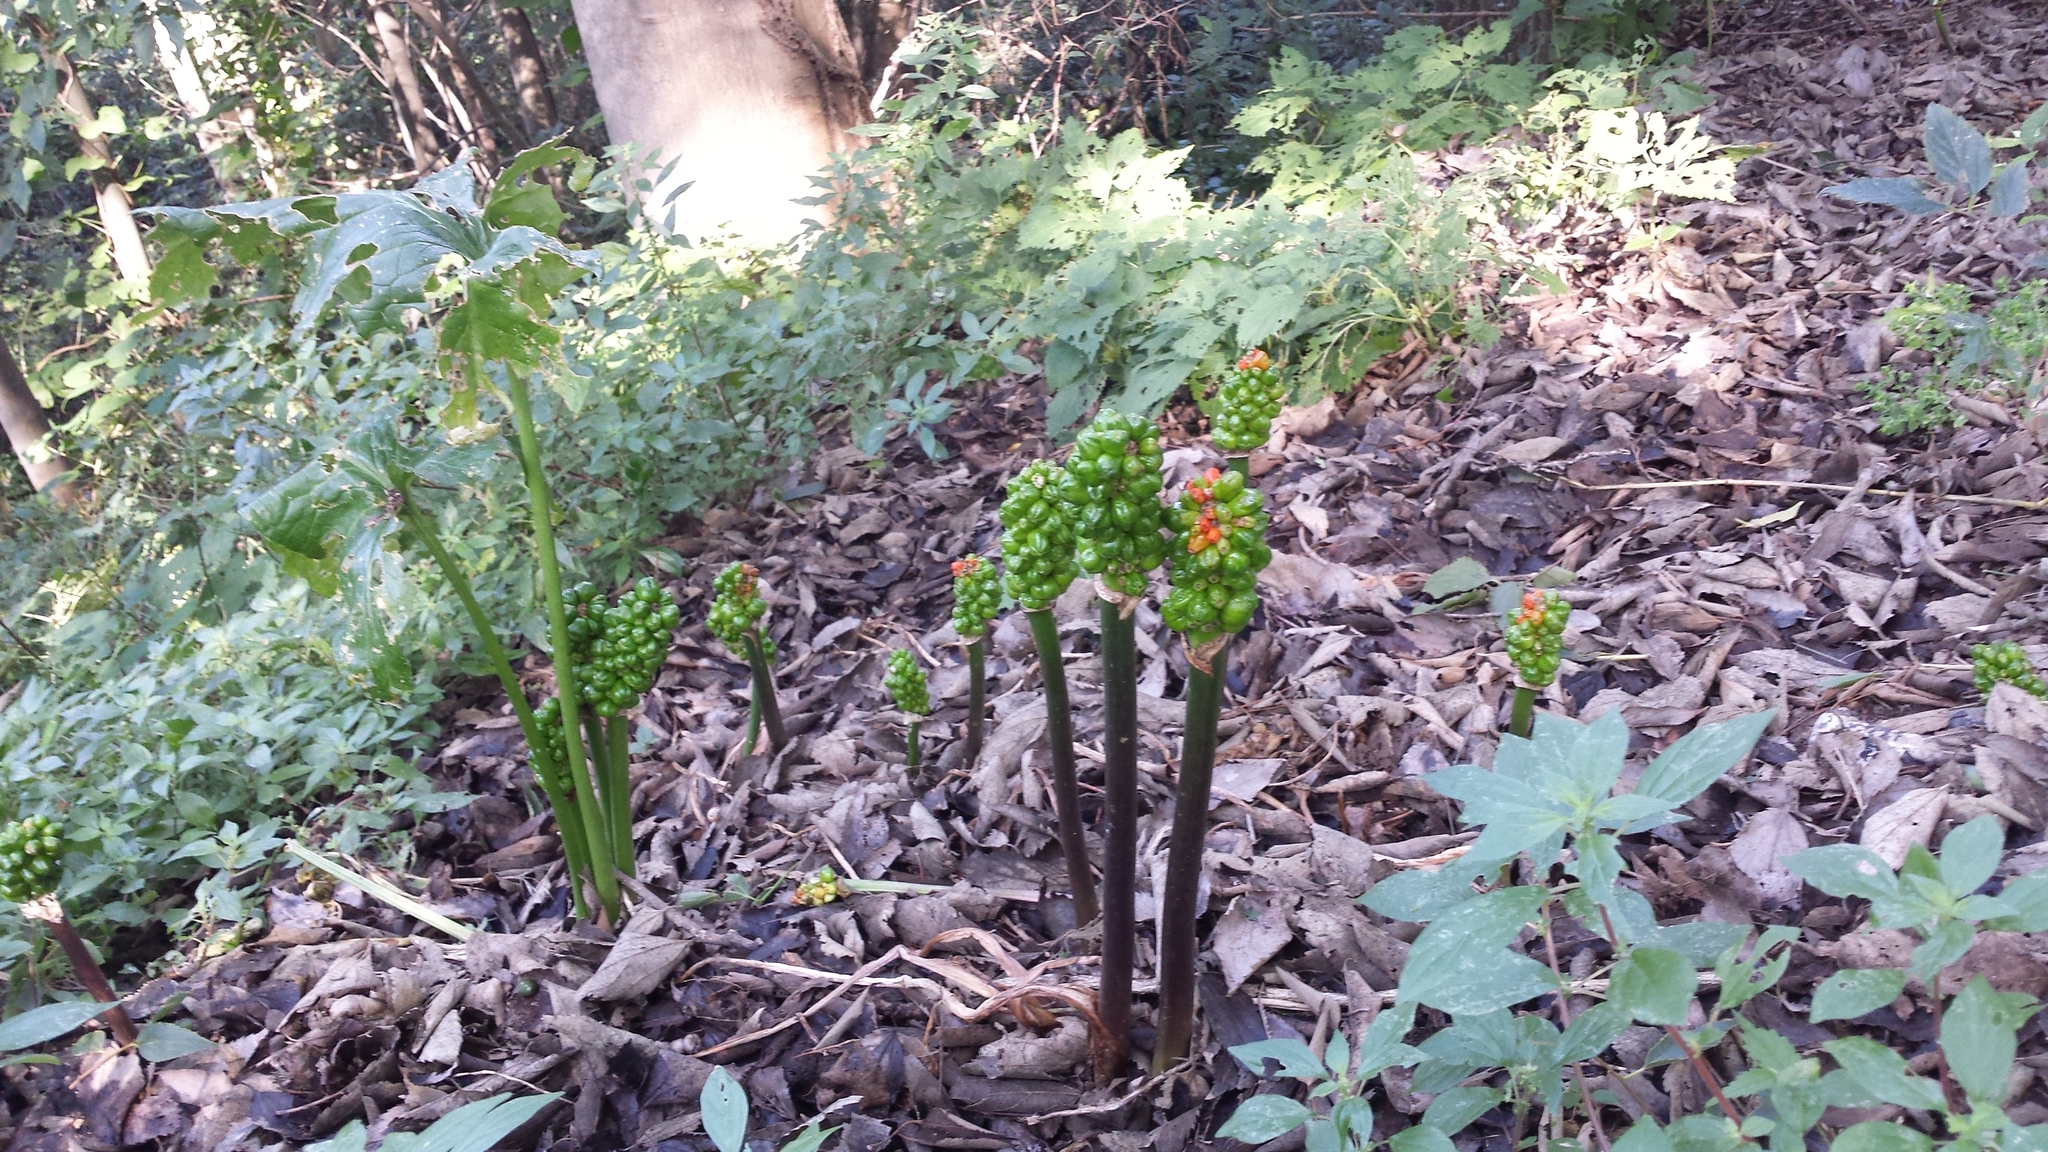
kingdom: Plantae
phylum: Tracheophyta
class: Liliopsida
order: Alismatales
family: Araceae
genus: Arum
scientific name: Arum italicum
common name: Italian lords-and-ladies
